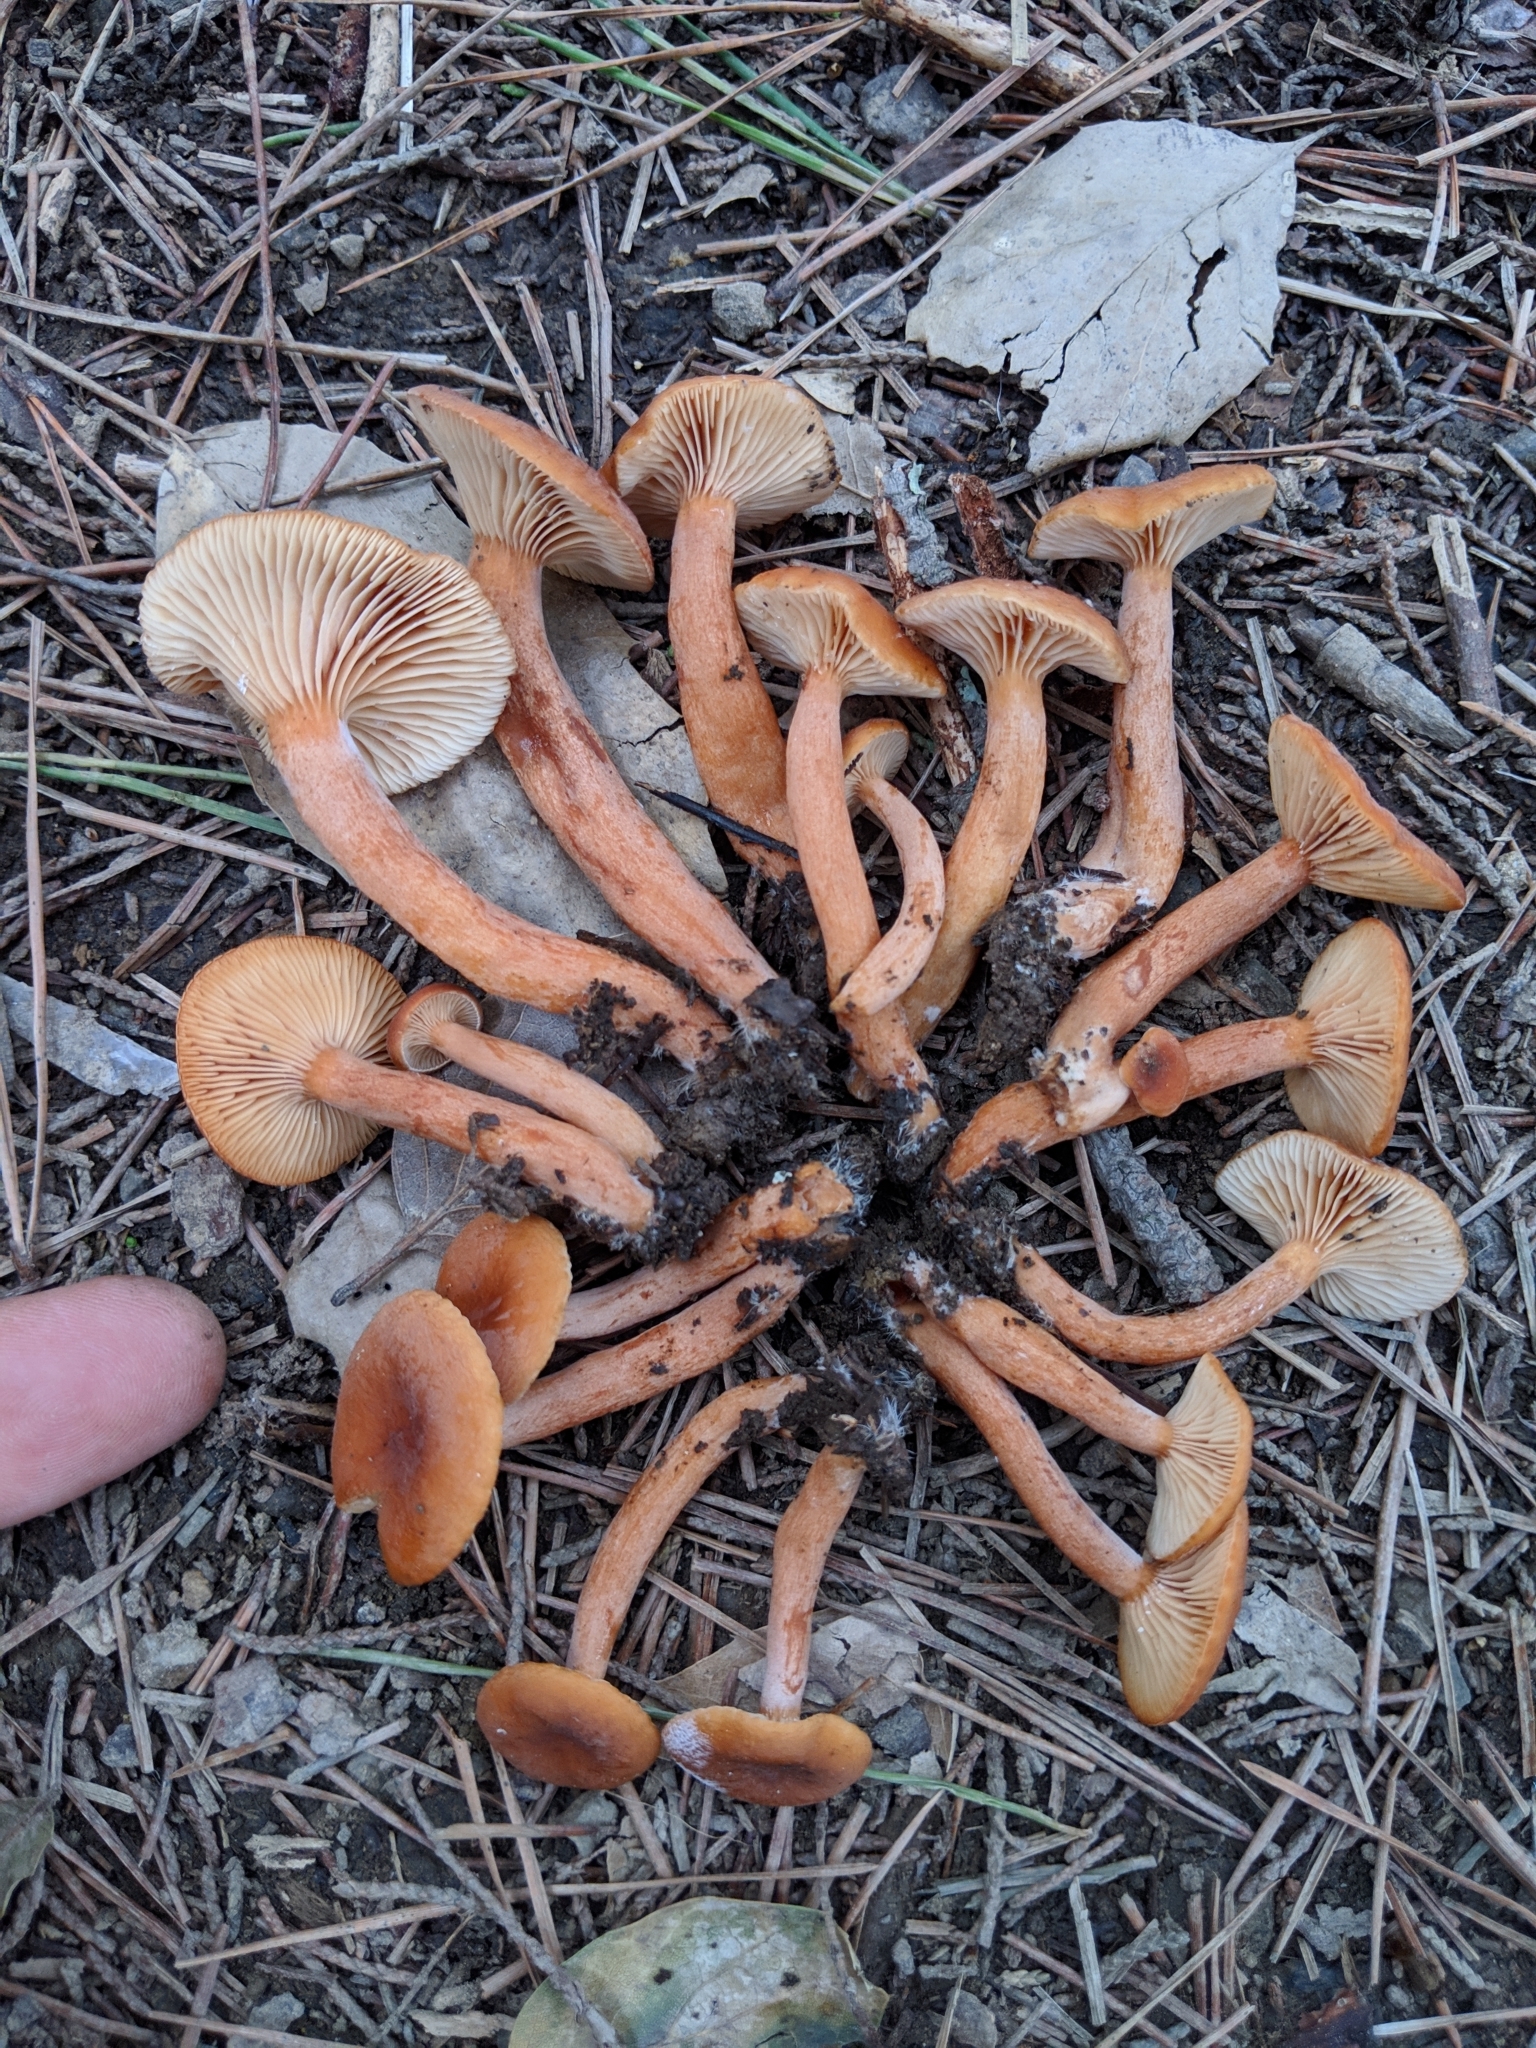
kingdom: Fungi
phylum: Basidiomycota
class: Agaricomycetes
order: Russulales
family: Russulaceae
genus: Lactarius
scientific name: Lactarius rubidus
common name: Candy cap
